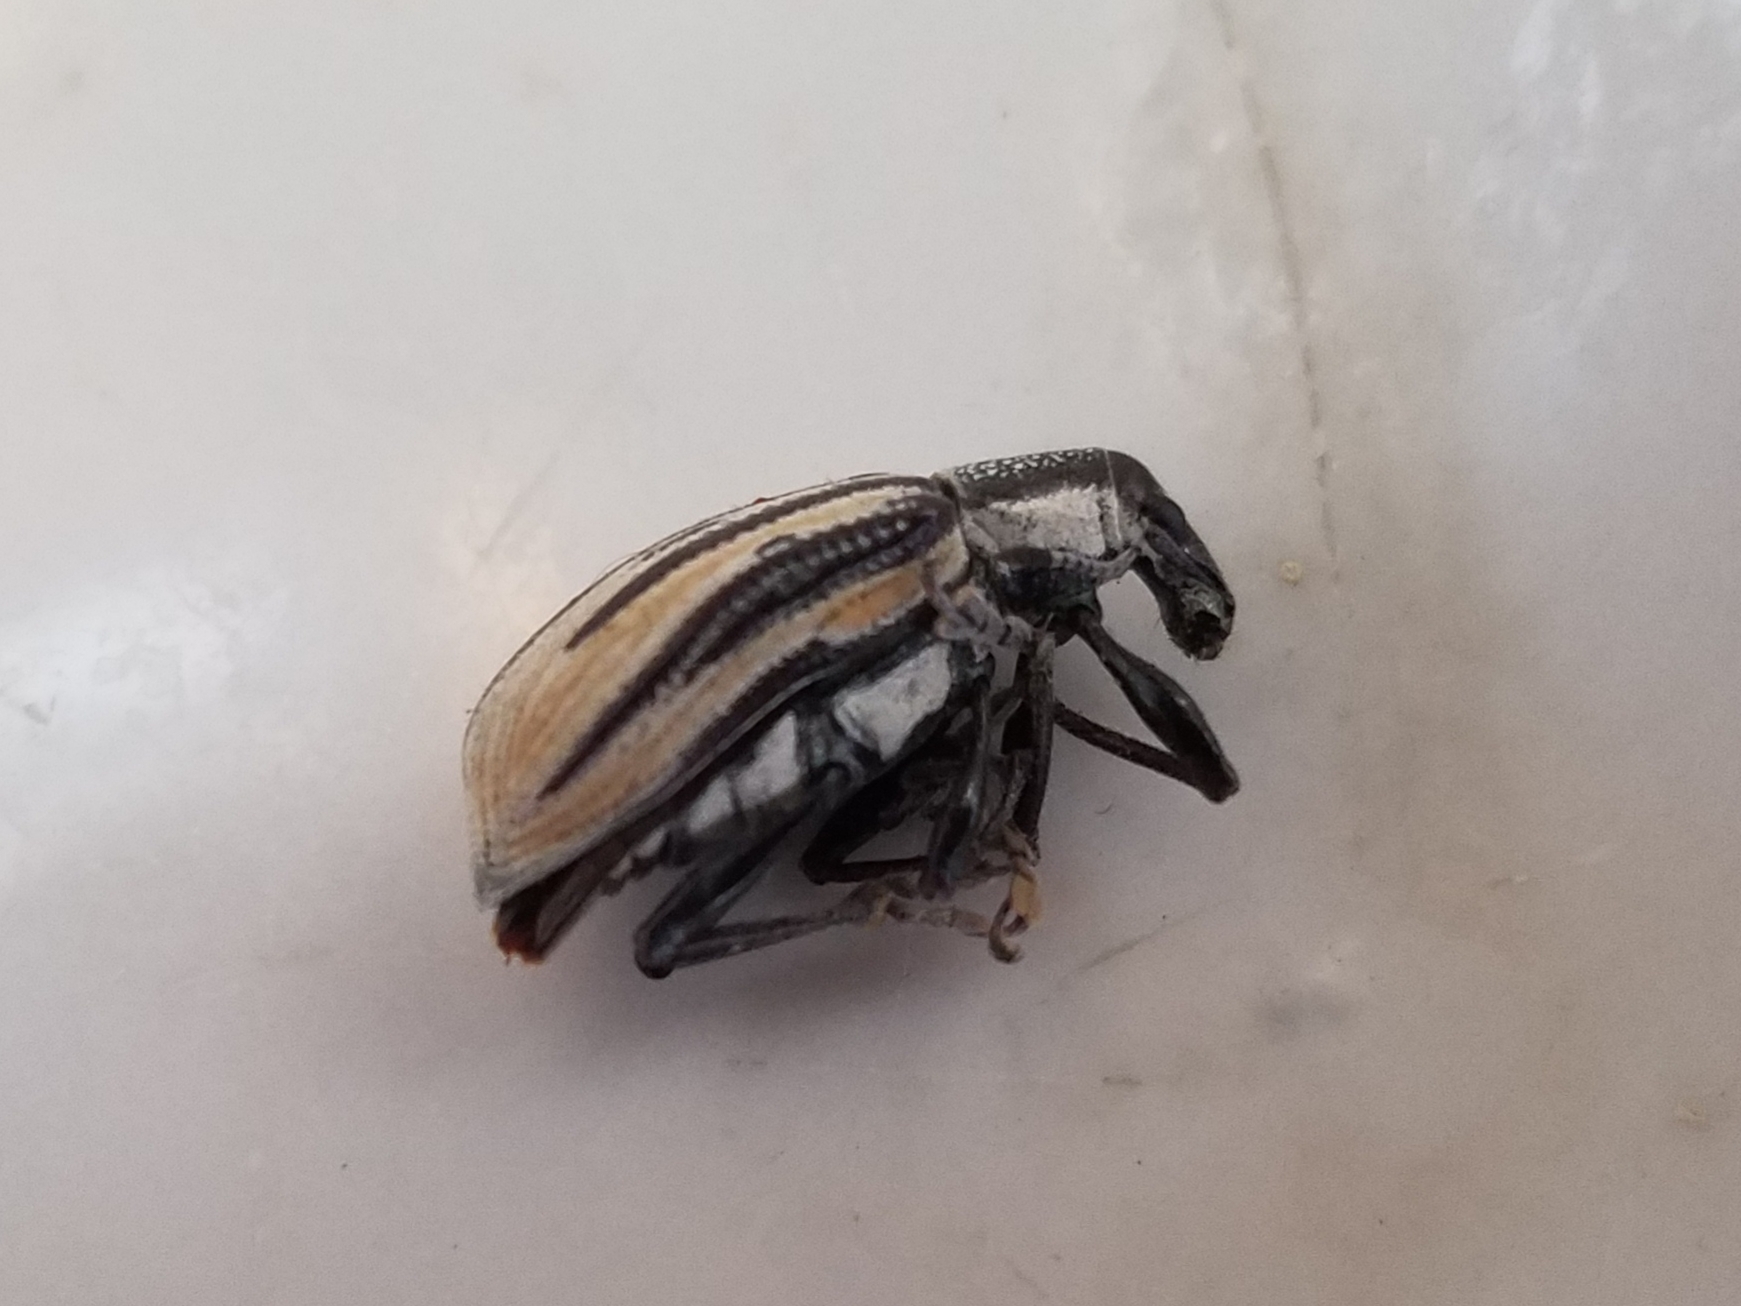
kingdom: Animalia
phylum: Arthropoda
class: Insecta
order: Coleoptera
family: Curculionidae
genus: Diaprepes
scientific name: Diaprepes abbreviatus
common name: Root weevil
